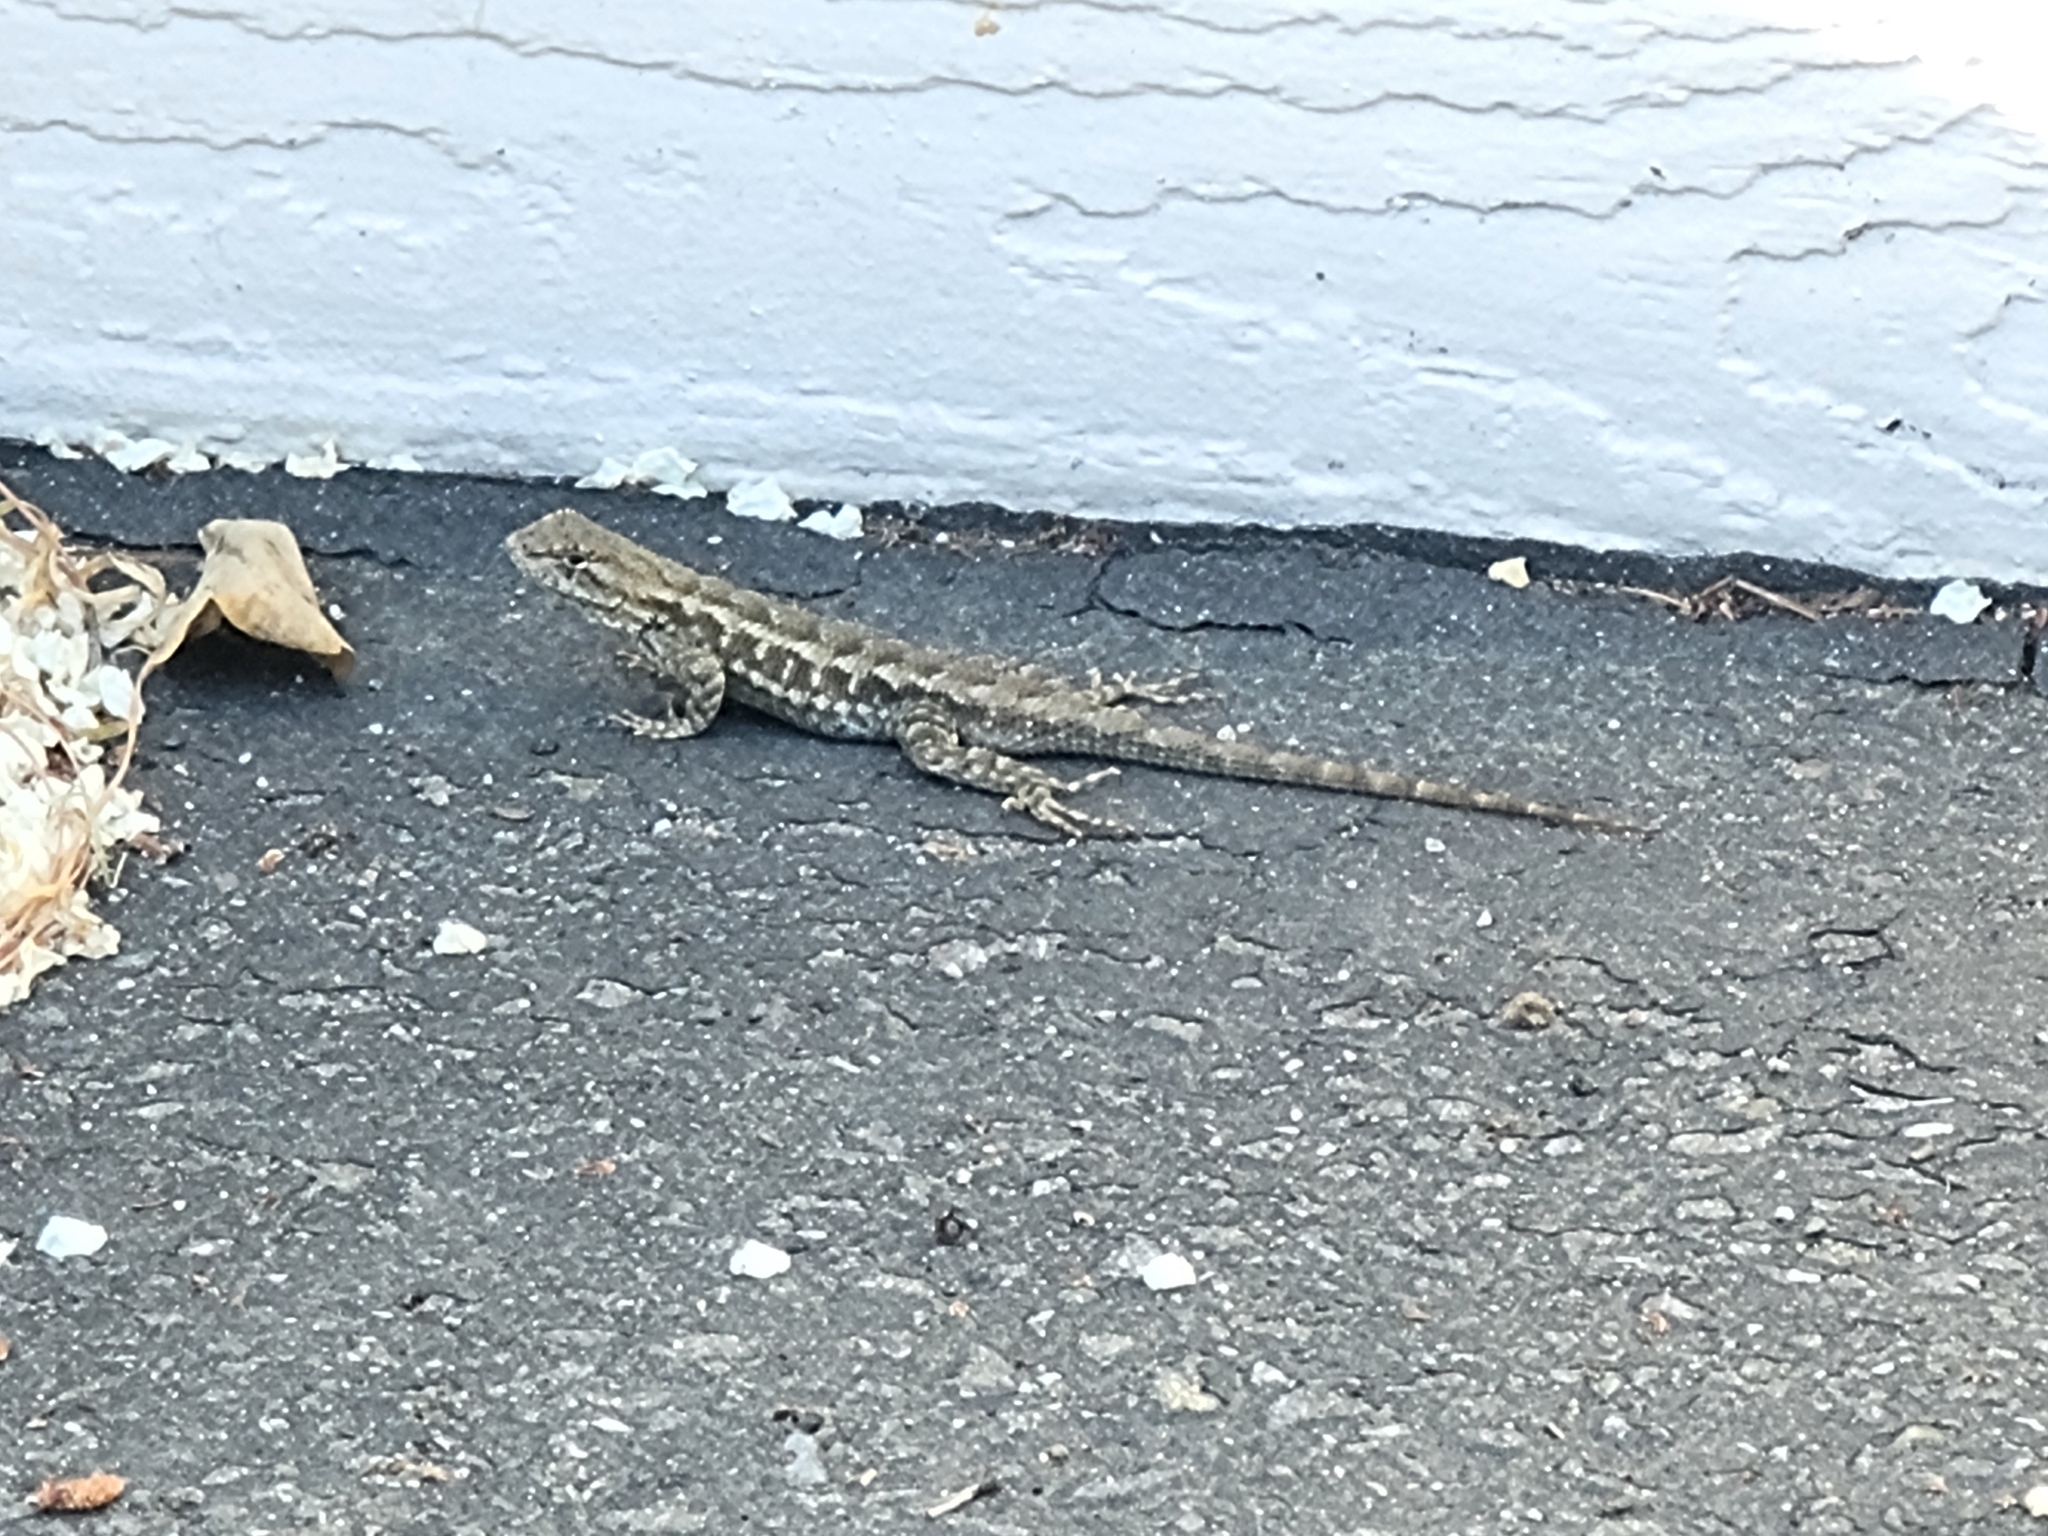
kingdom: Animalia
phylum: Chordata
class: Squamata
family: Phrynosomatidae
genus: Sceloporus
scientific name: Sceloporus occidentalis
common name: Western fence lizard
